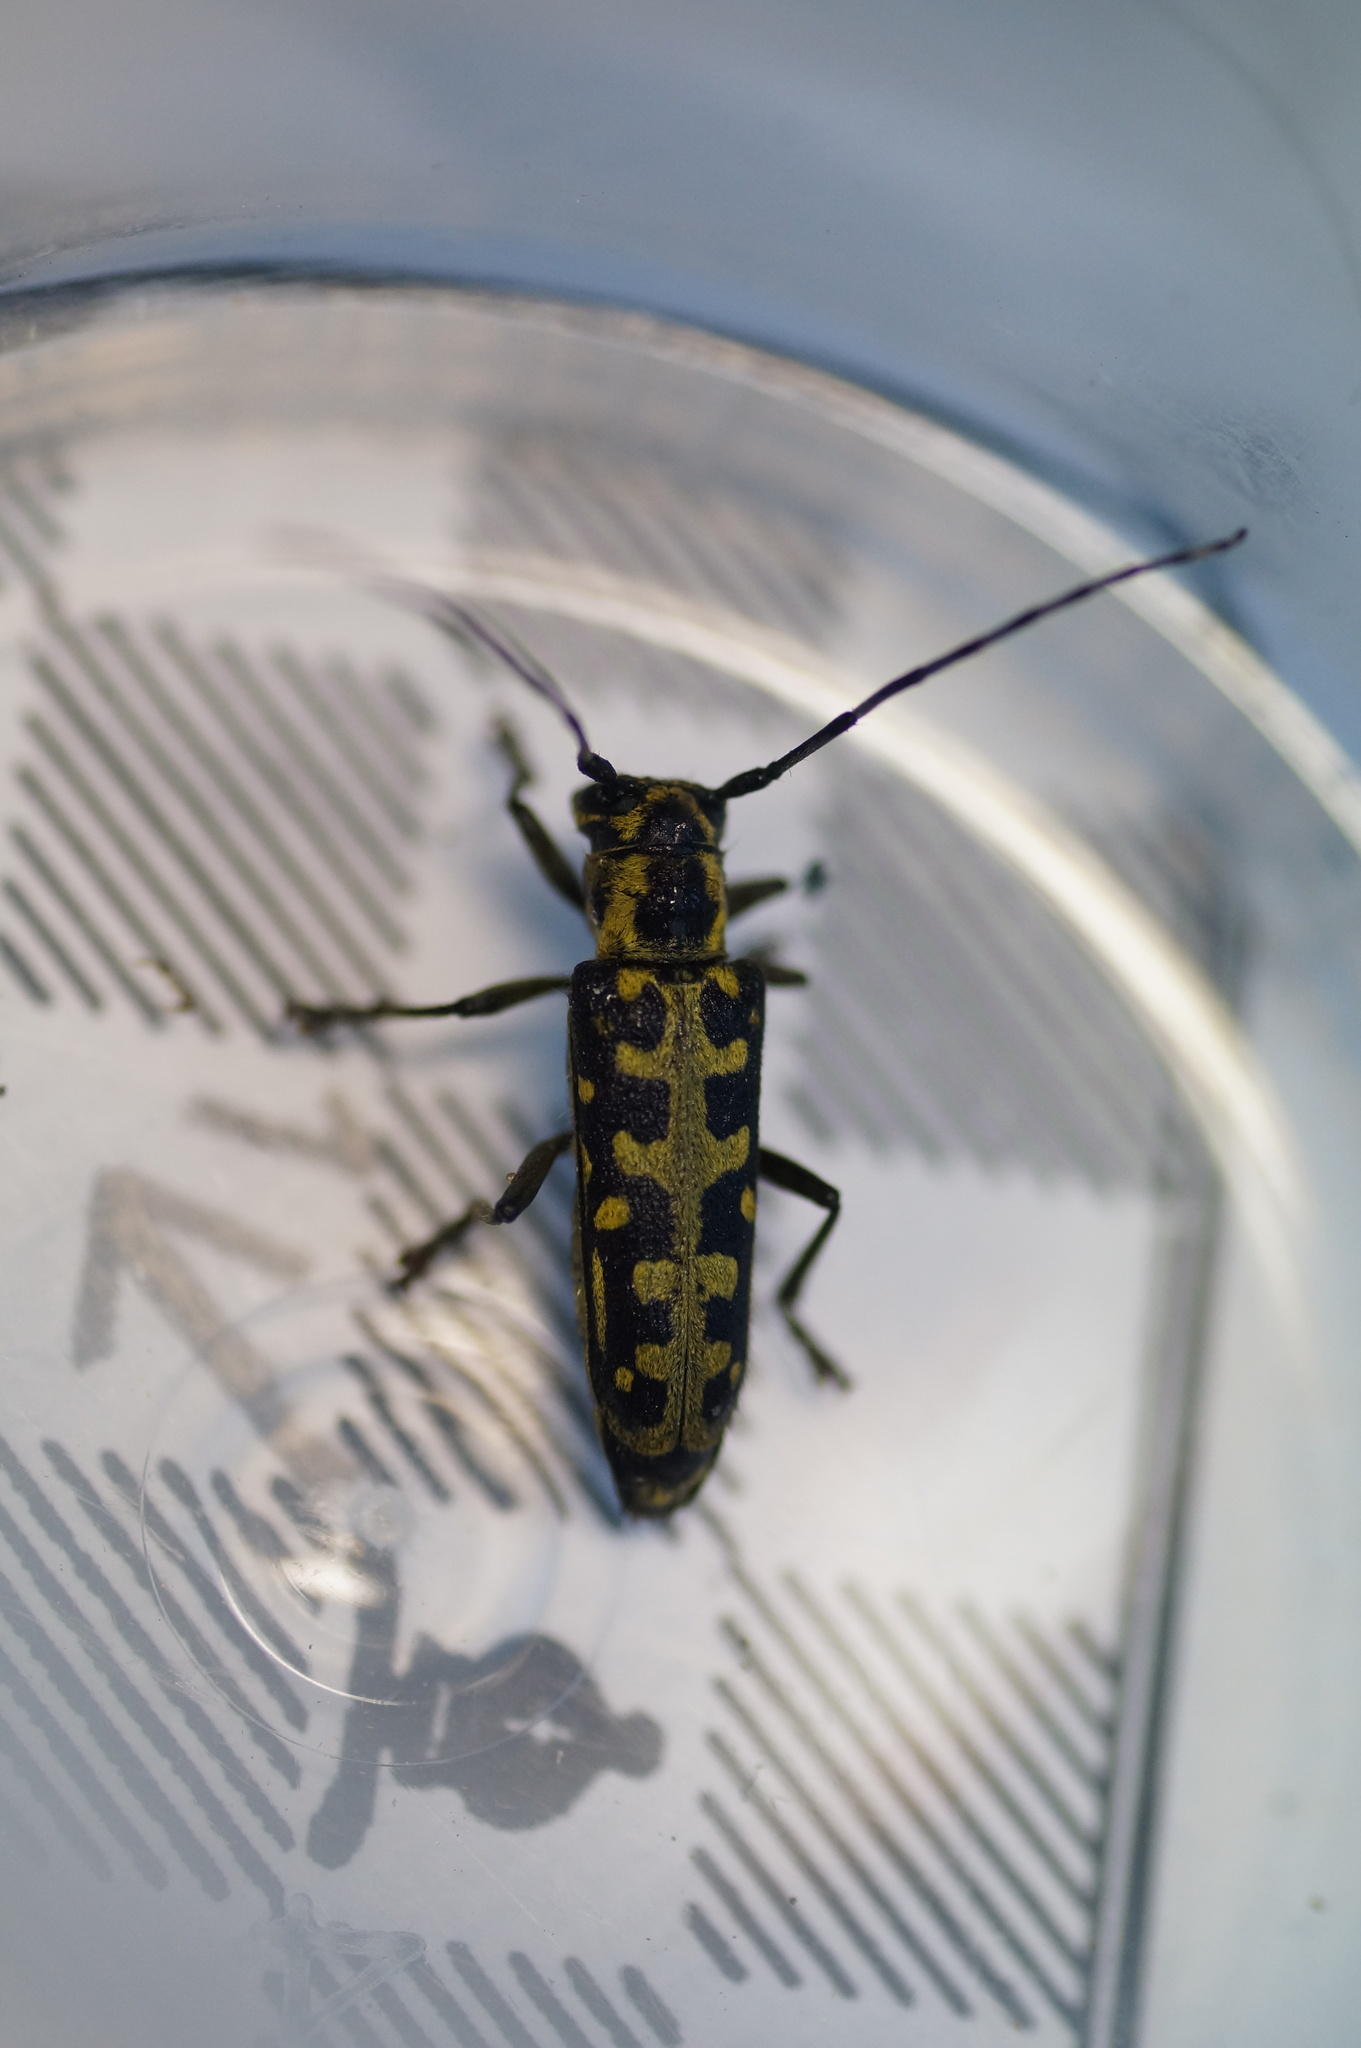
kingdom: Animalia
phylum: Arthropoda
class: Insecta
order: Coleoptera
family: Cerambycidae
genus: Saperda
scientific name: Saperda scalaris
